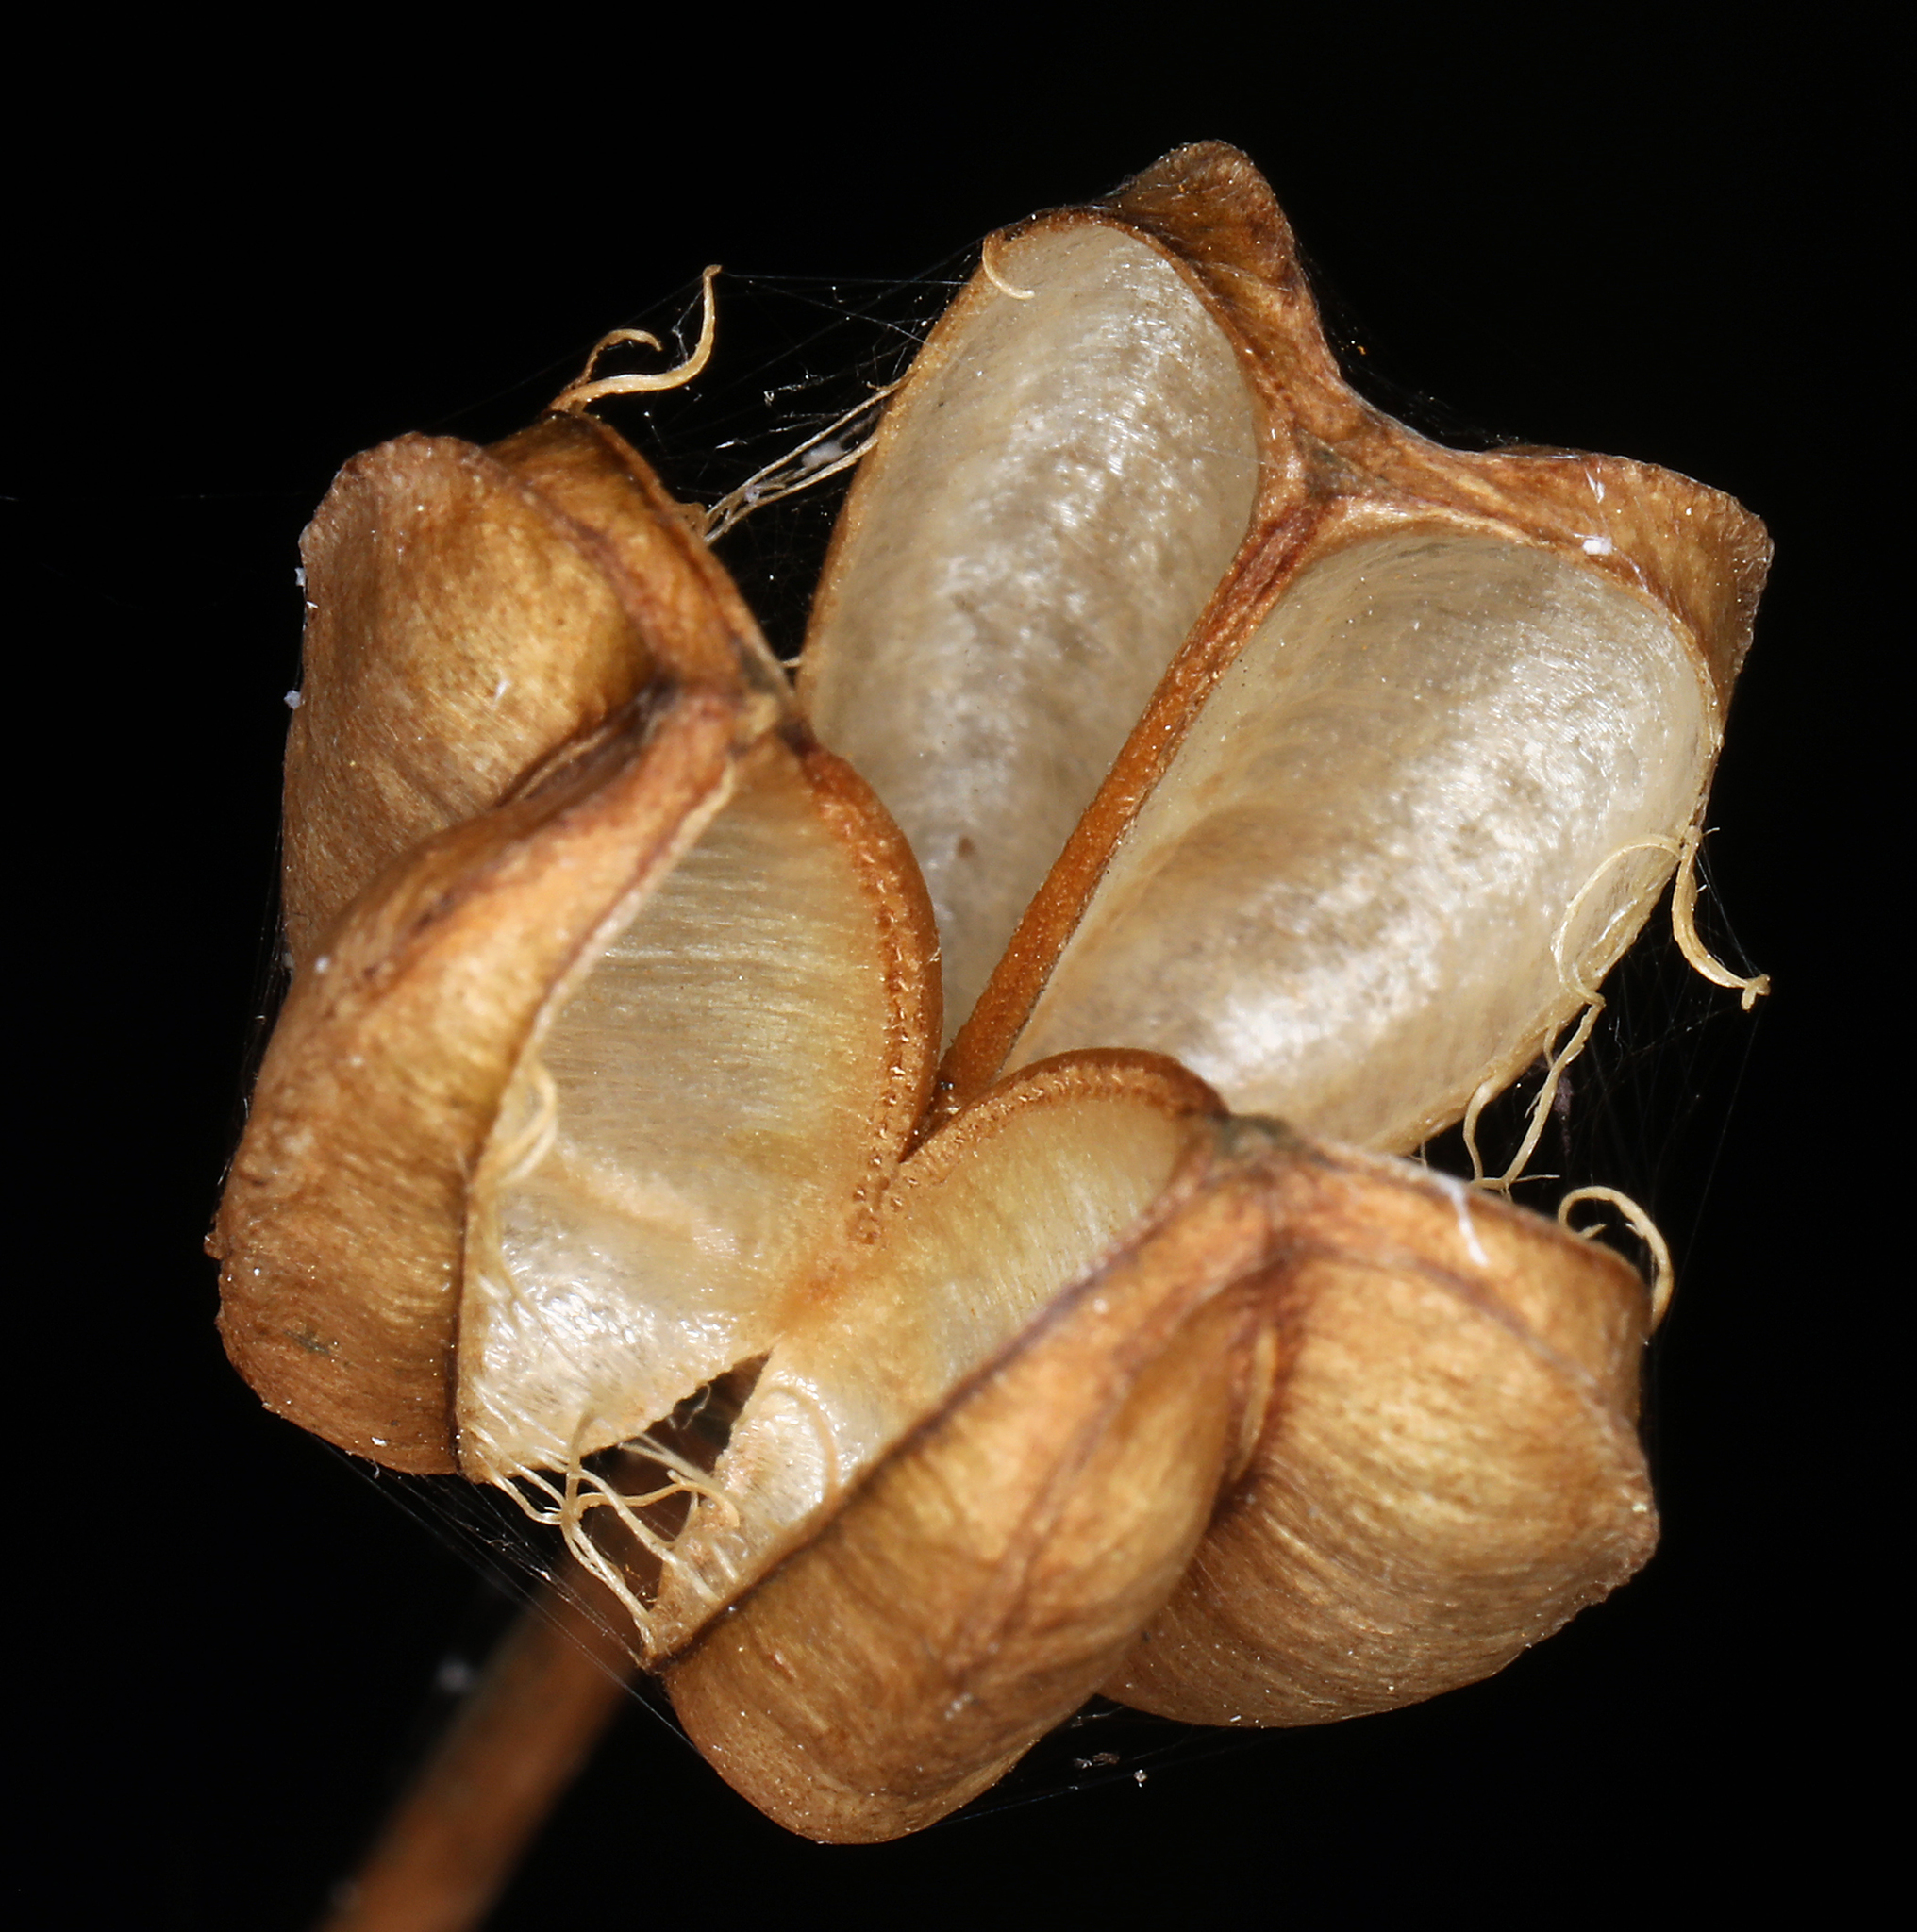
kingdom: Plantae
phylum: Tracheophyta
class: Liliopsida
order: Liliales
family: Liliaceae
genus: Lilium
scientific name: Lilium kelleyanum
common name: Kelley's lily
